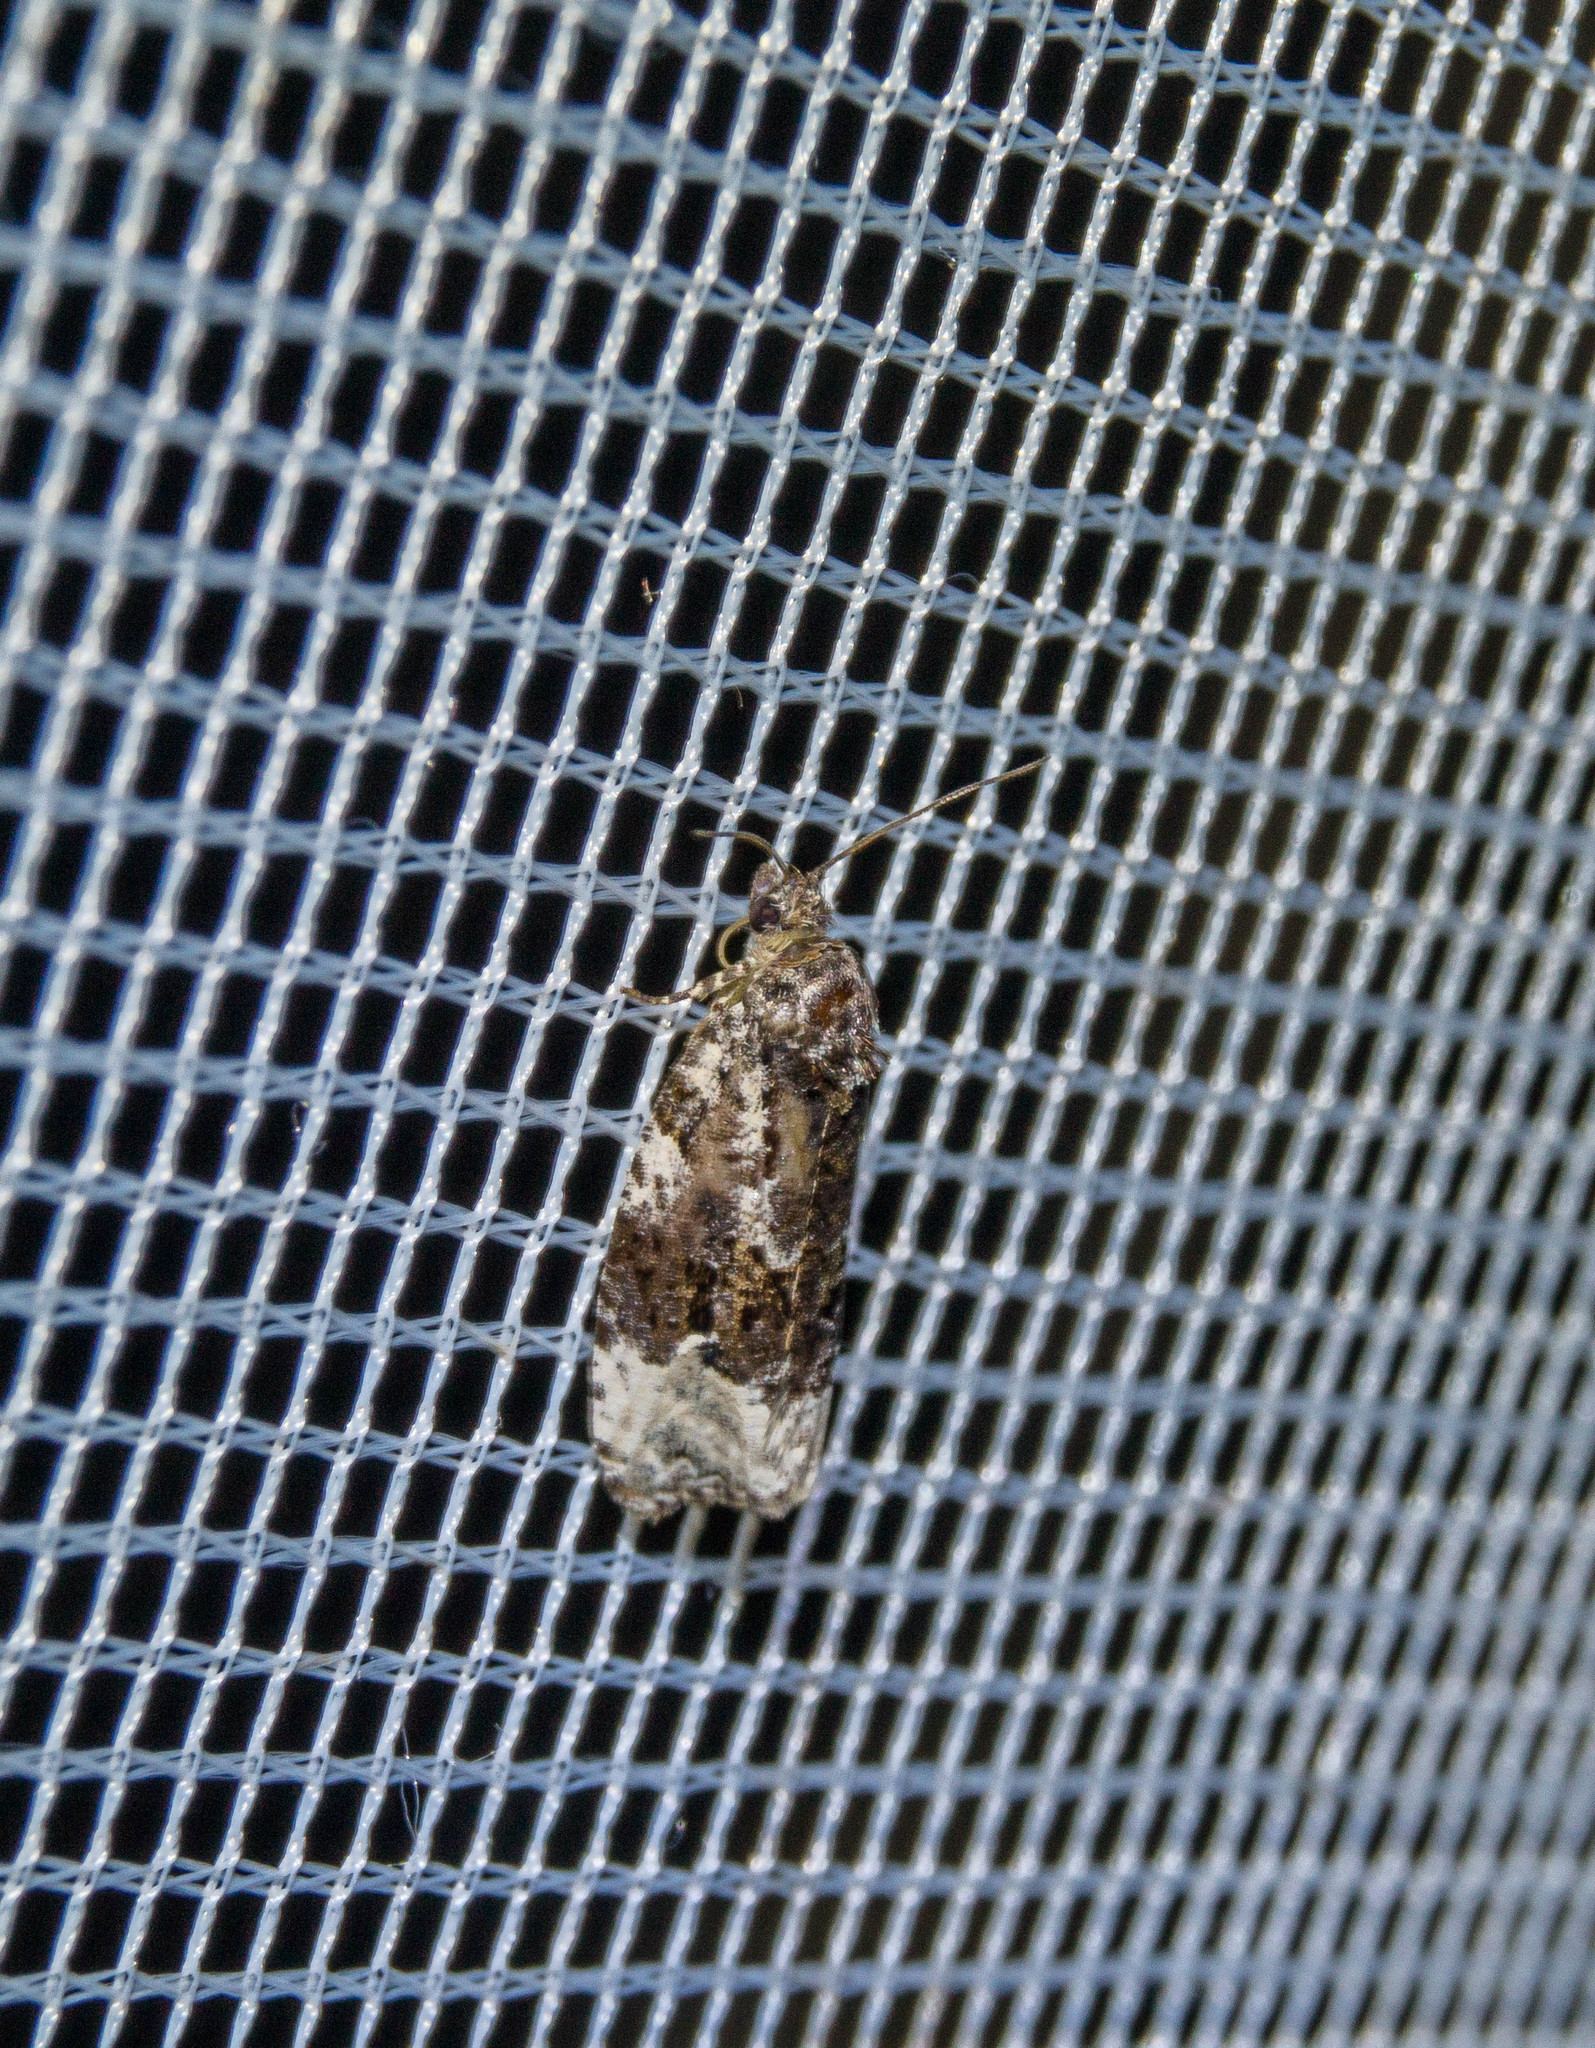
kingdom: Animalia
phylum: Arthropoda
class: Insecta
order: Lepidoptera
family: Tortricidae
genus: Apotomis
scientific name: Apotomis turbidana
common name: White-shouldered marble
